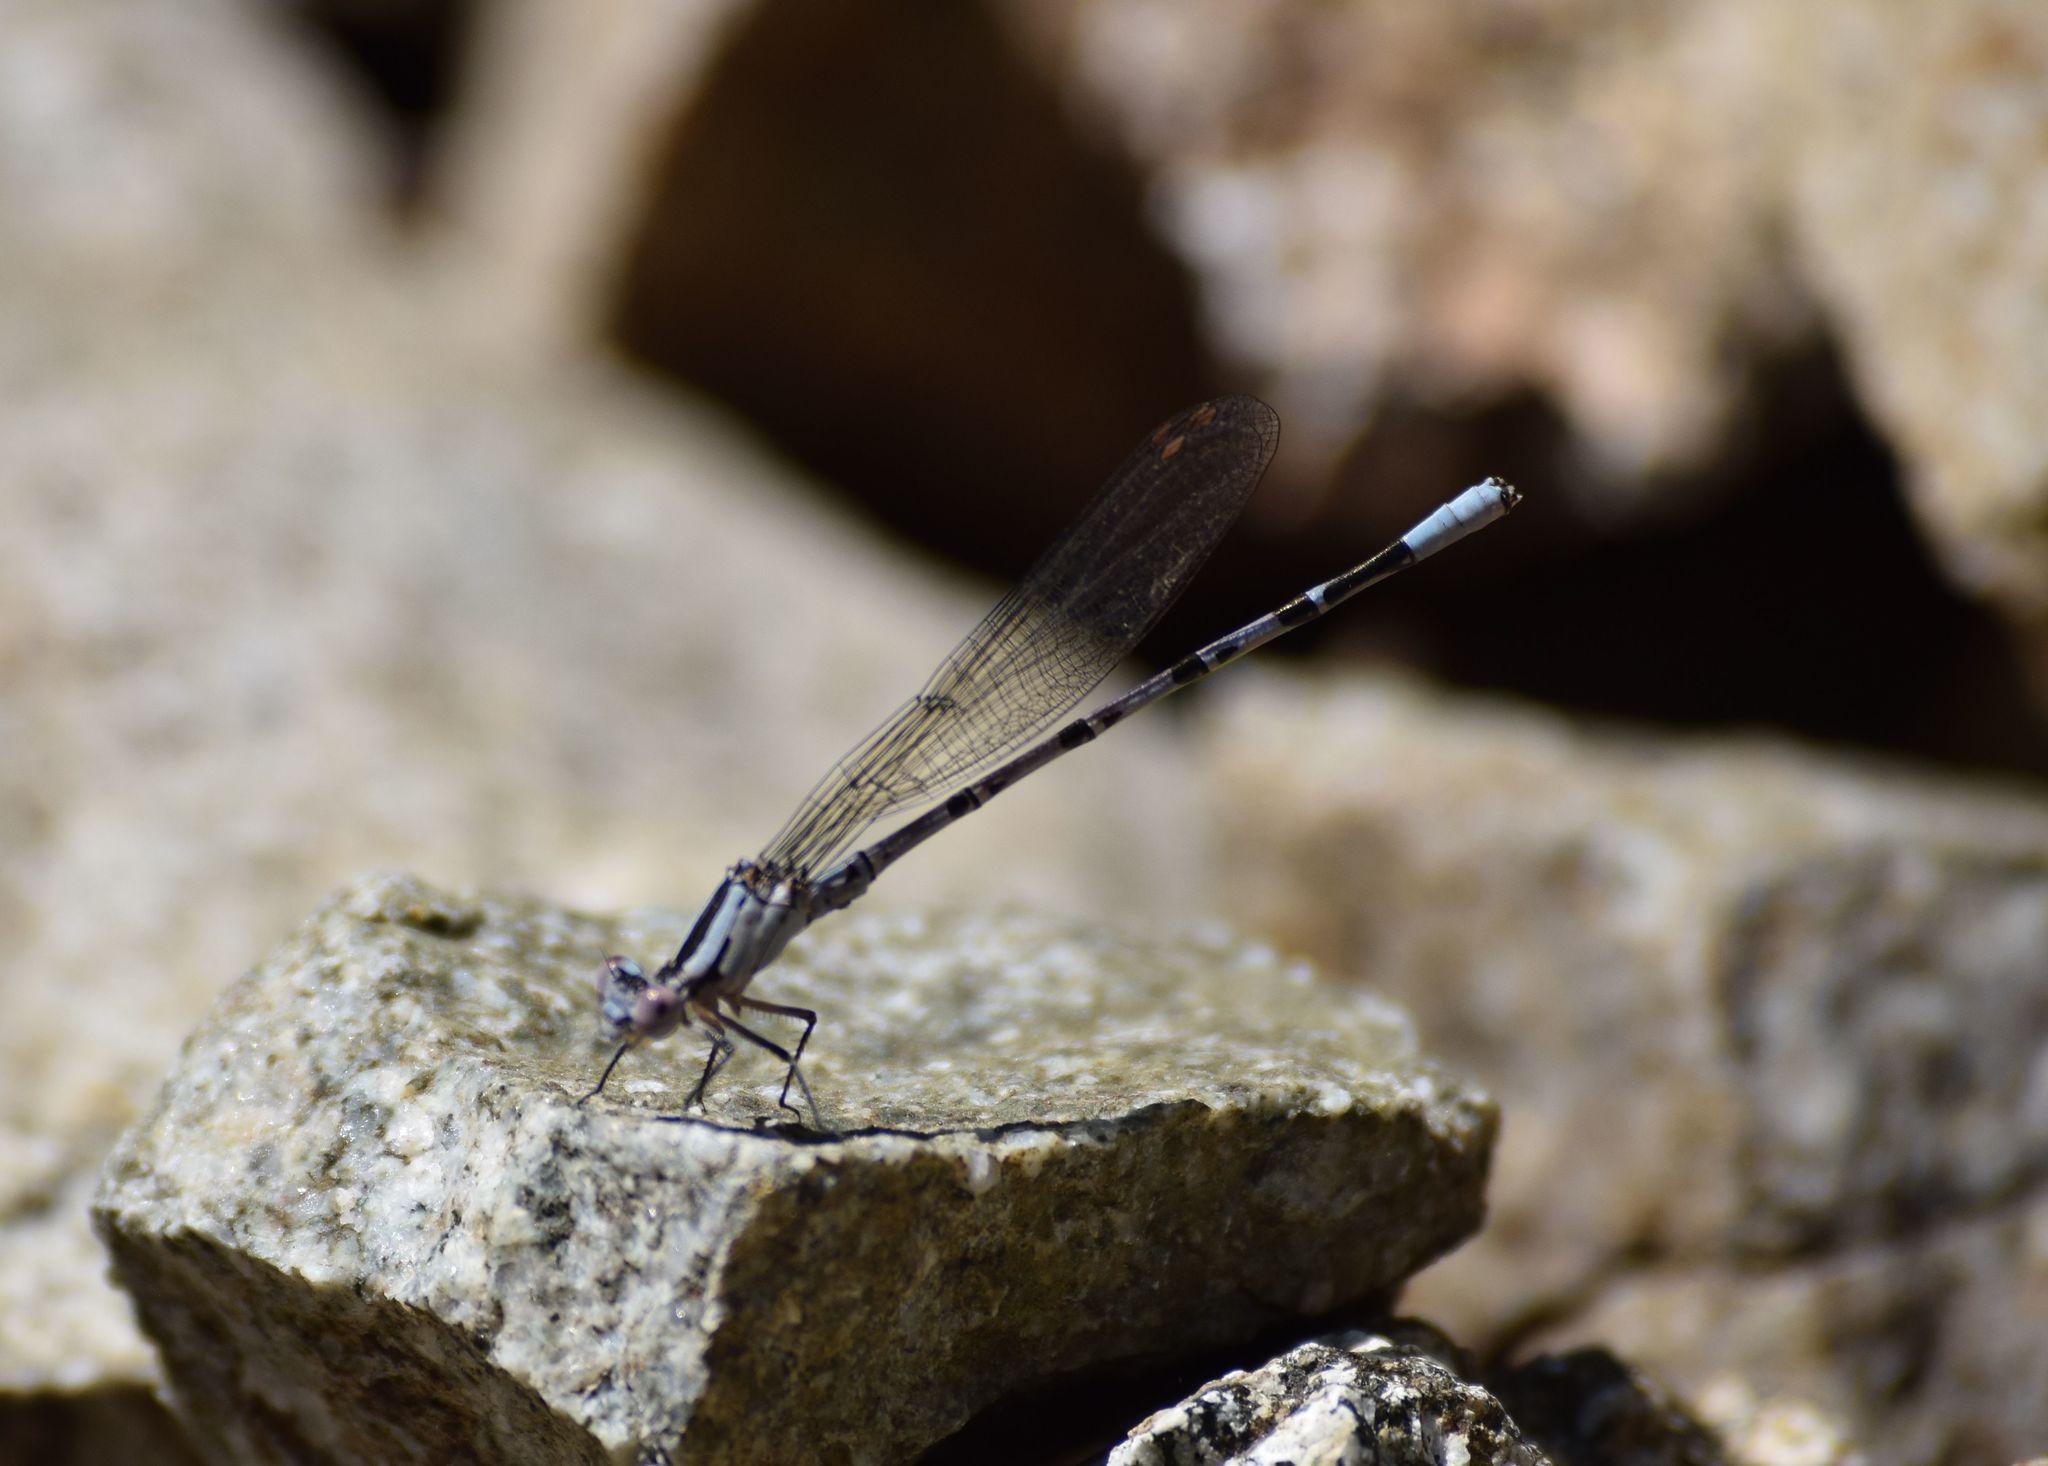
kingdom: Animalia
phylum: Arthropoda
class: Insecta
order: Odonata
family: Coenagrionidae
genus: Argia
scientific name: Argia vivida
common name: Vivid dancer
